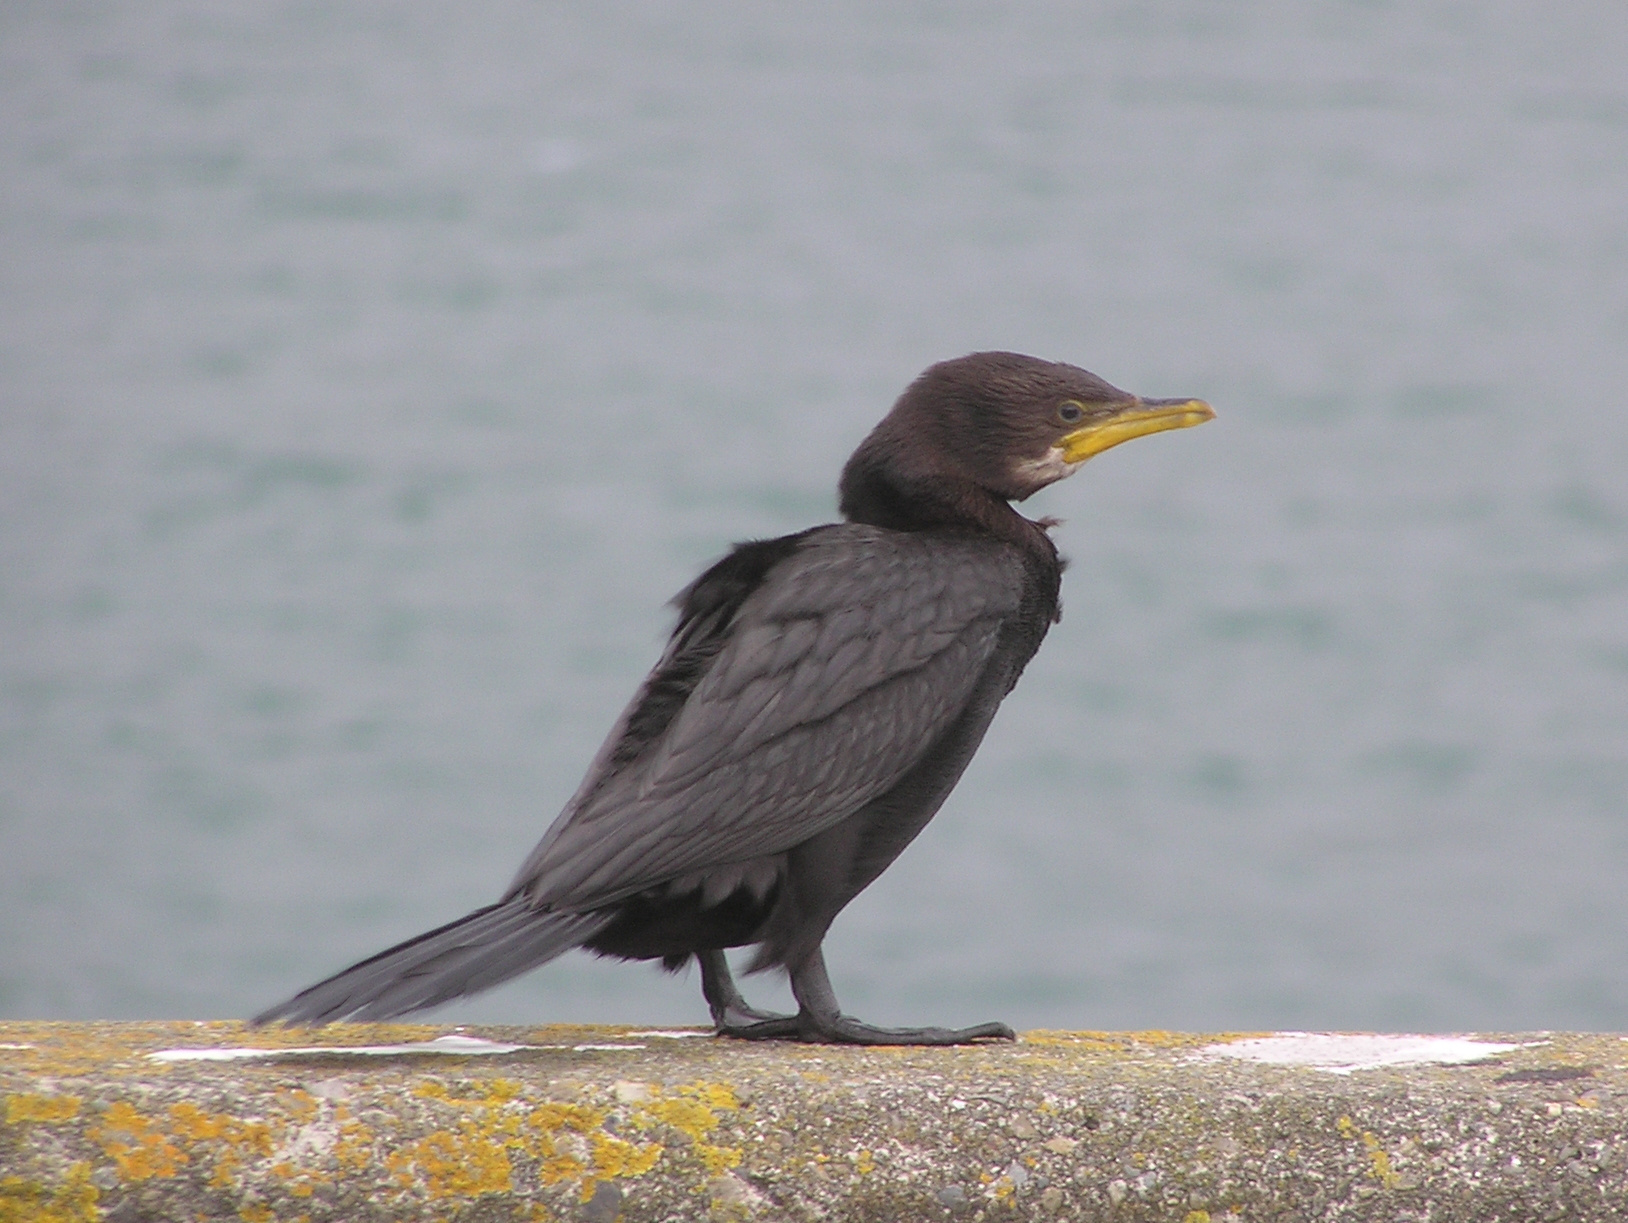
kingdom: Animalia
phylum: Chordata
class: Aves
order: Suliformes
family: Phalacrocoracidae
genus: Microcarbo
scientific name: Microcarbo melanoleucos
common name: Little pied cormorant
